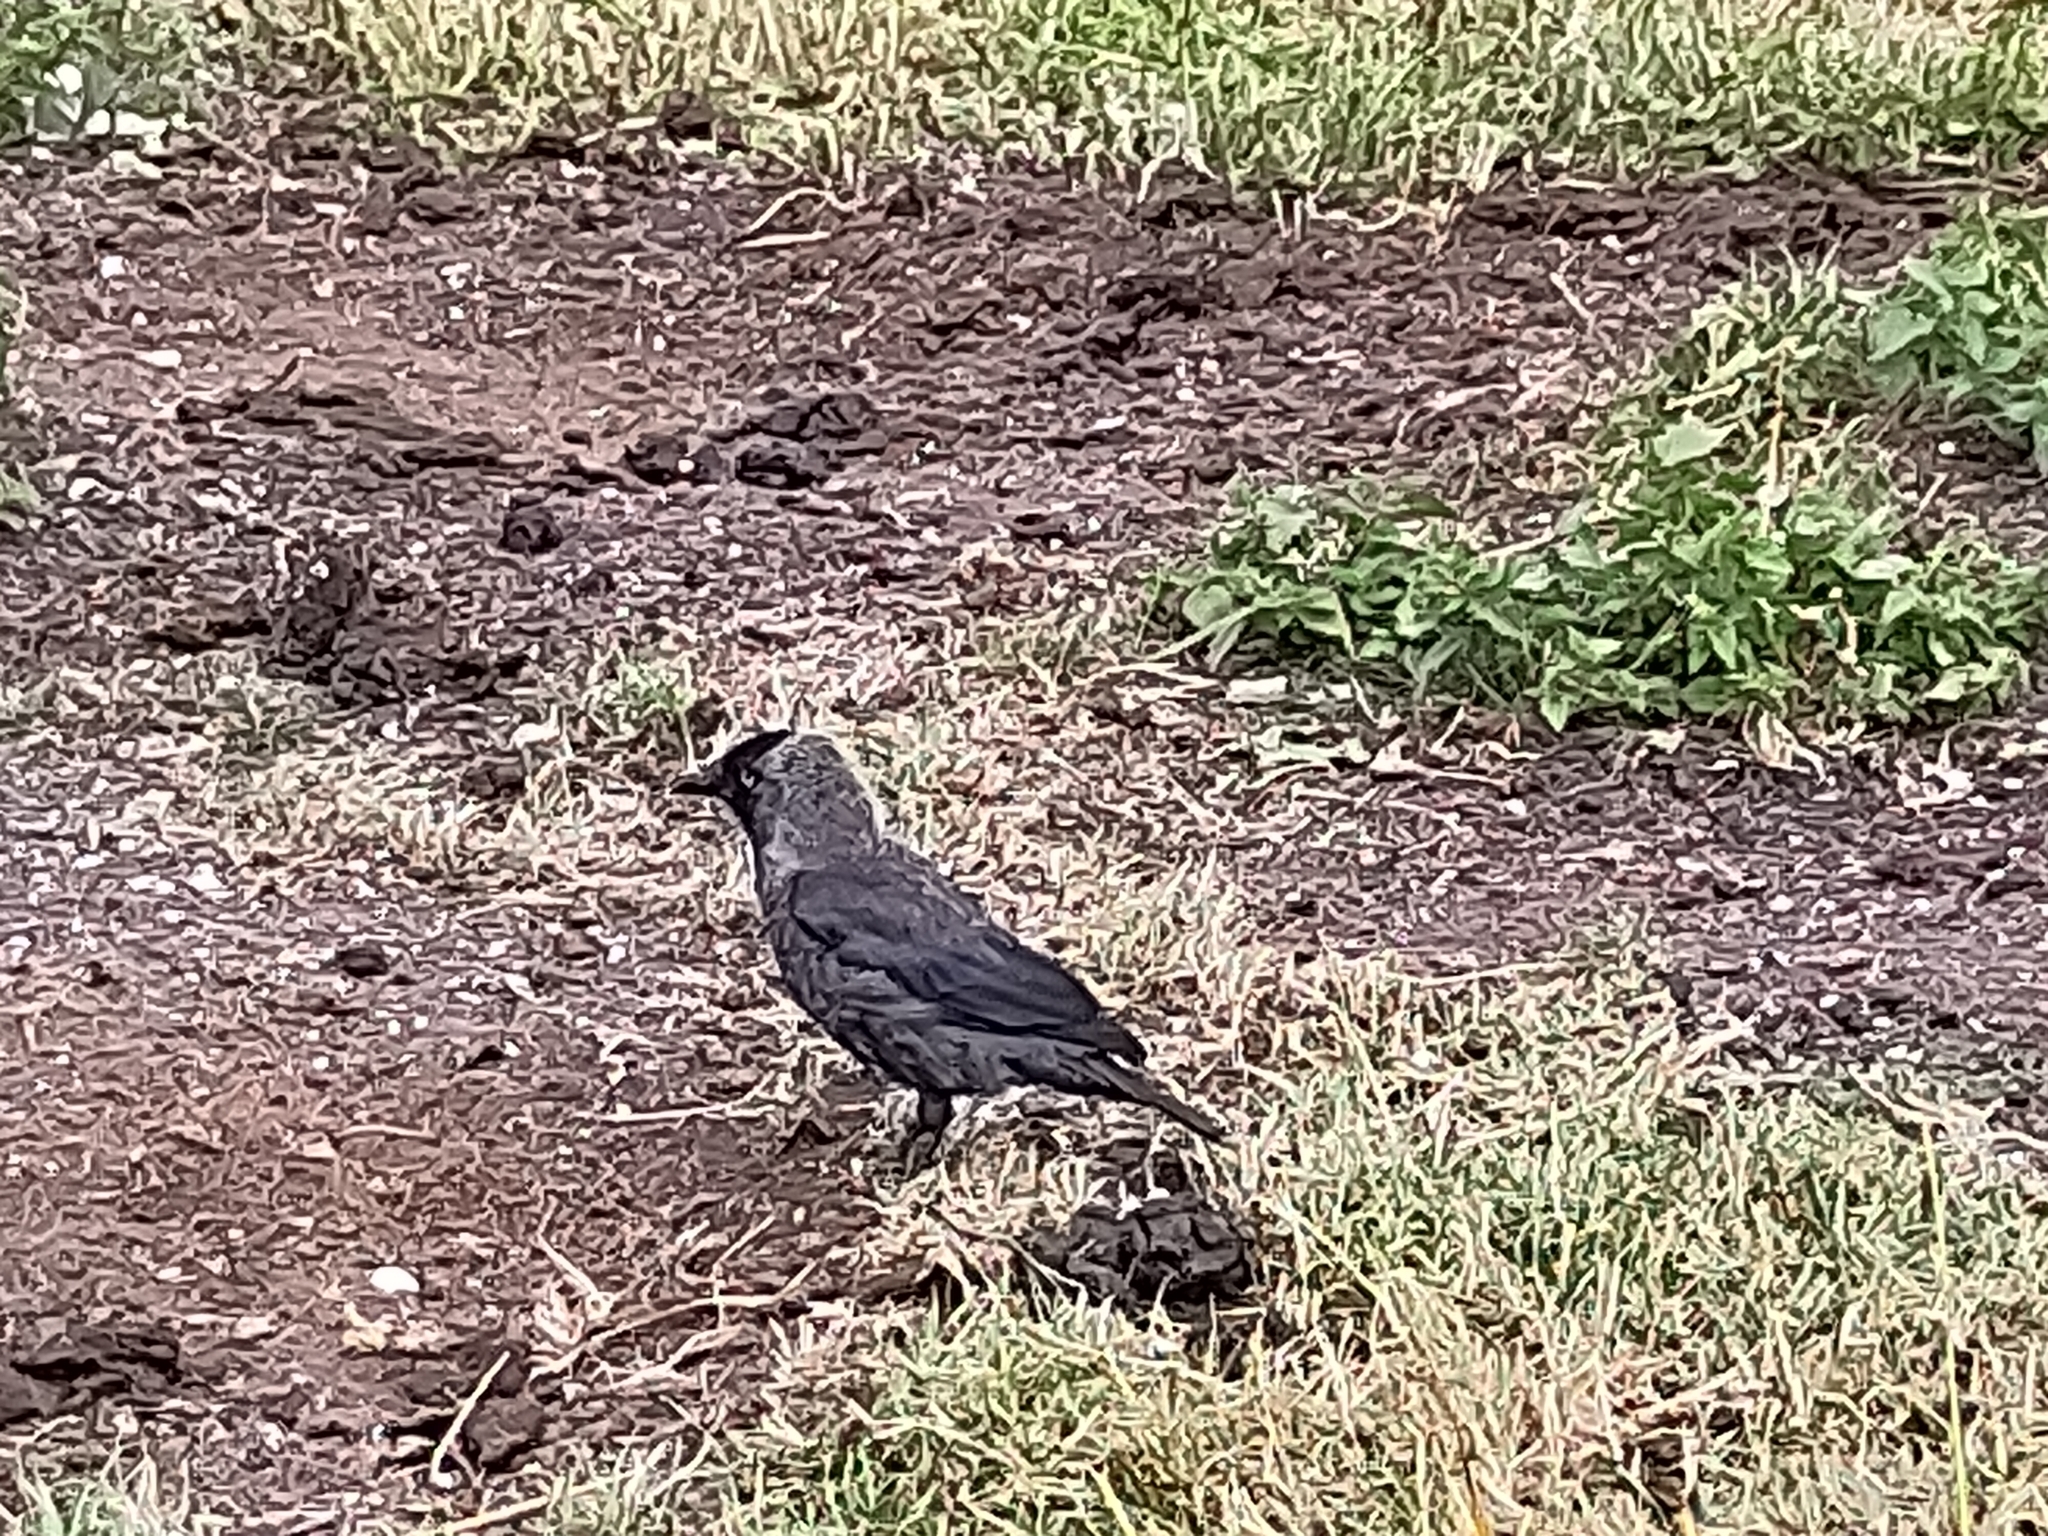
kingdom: Animalia
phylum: Chordata
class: Aves
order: Passeriformes
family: Corvidae
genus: Coloeus
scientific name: Coloeus monedula
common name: Western jackdaw
